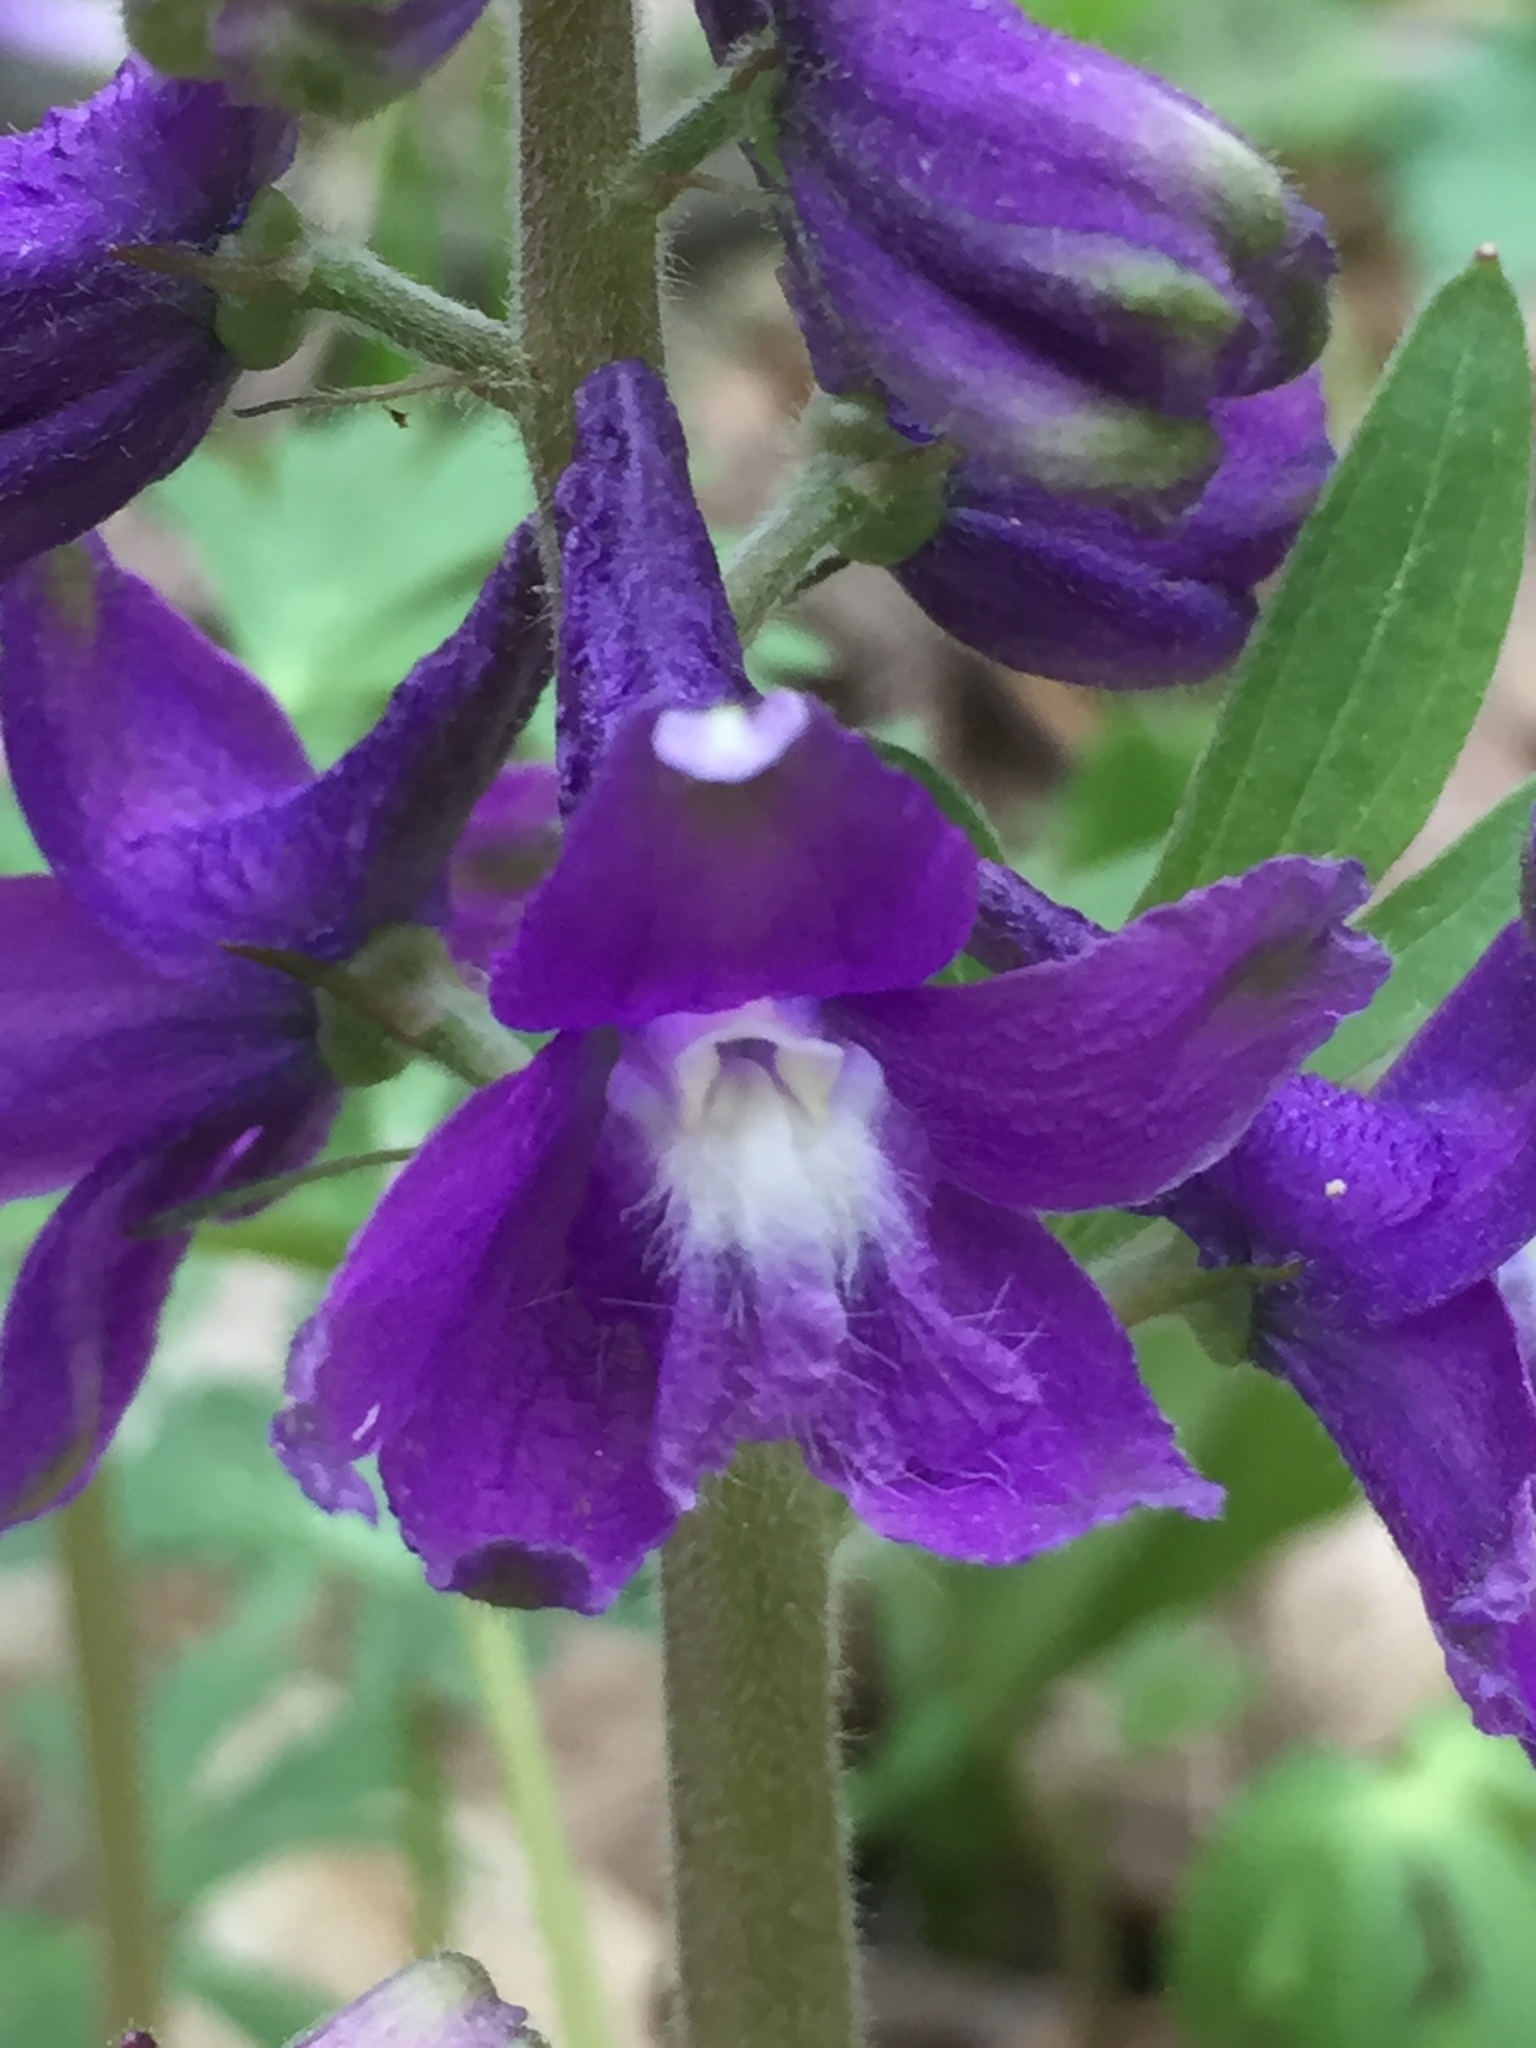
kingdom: Plantae
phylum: Tracheophyta
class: Magnoliopsida
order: Ranunculales
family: Ranunculaceae
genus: Delphinium
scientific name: Delphinium tricorne
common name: Dwarf larkspur
